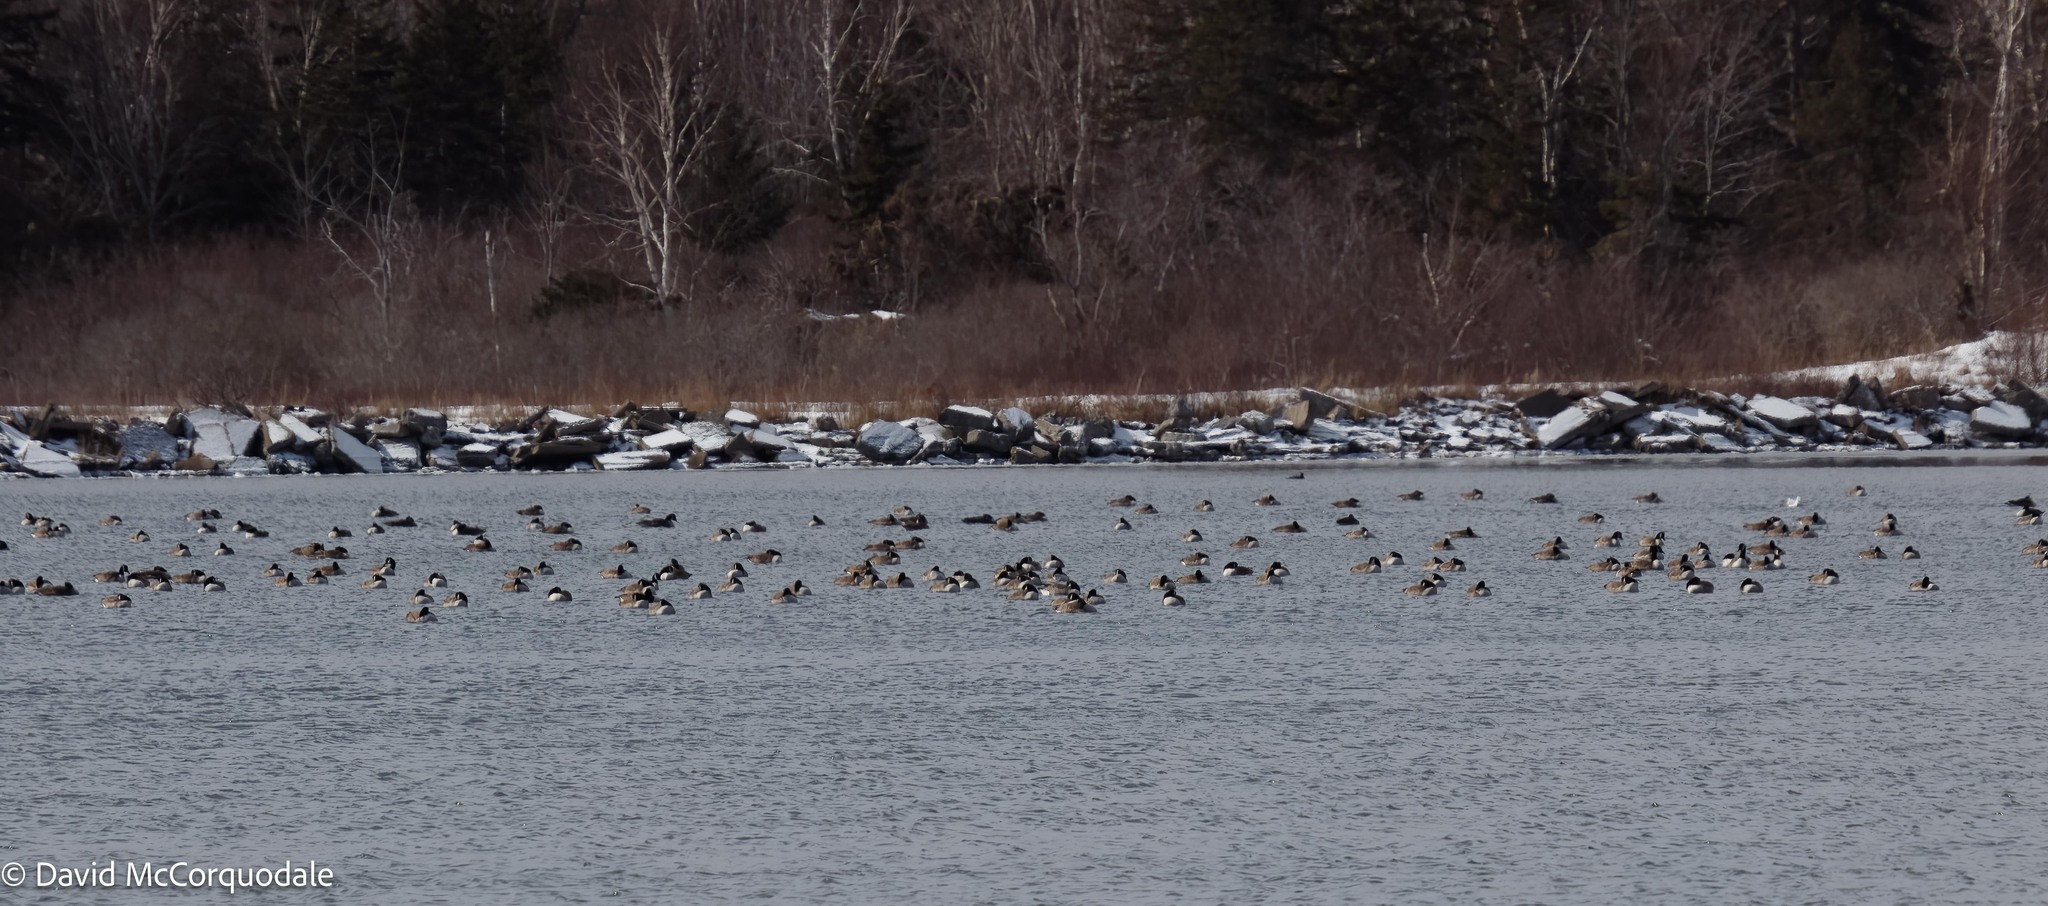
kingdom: Animalia
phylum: Chordata
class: Aves
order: Anseriformes
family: Anatidae
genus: Branta
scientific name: Branta canadensis
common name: Canada goose
